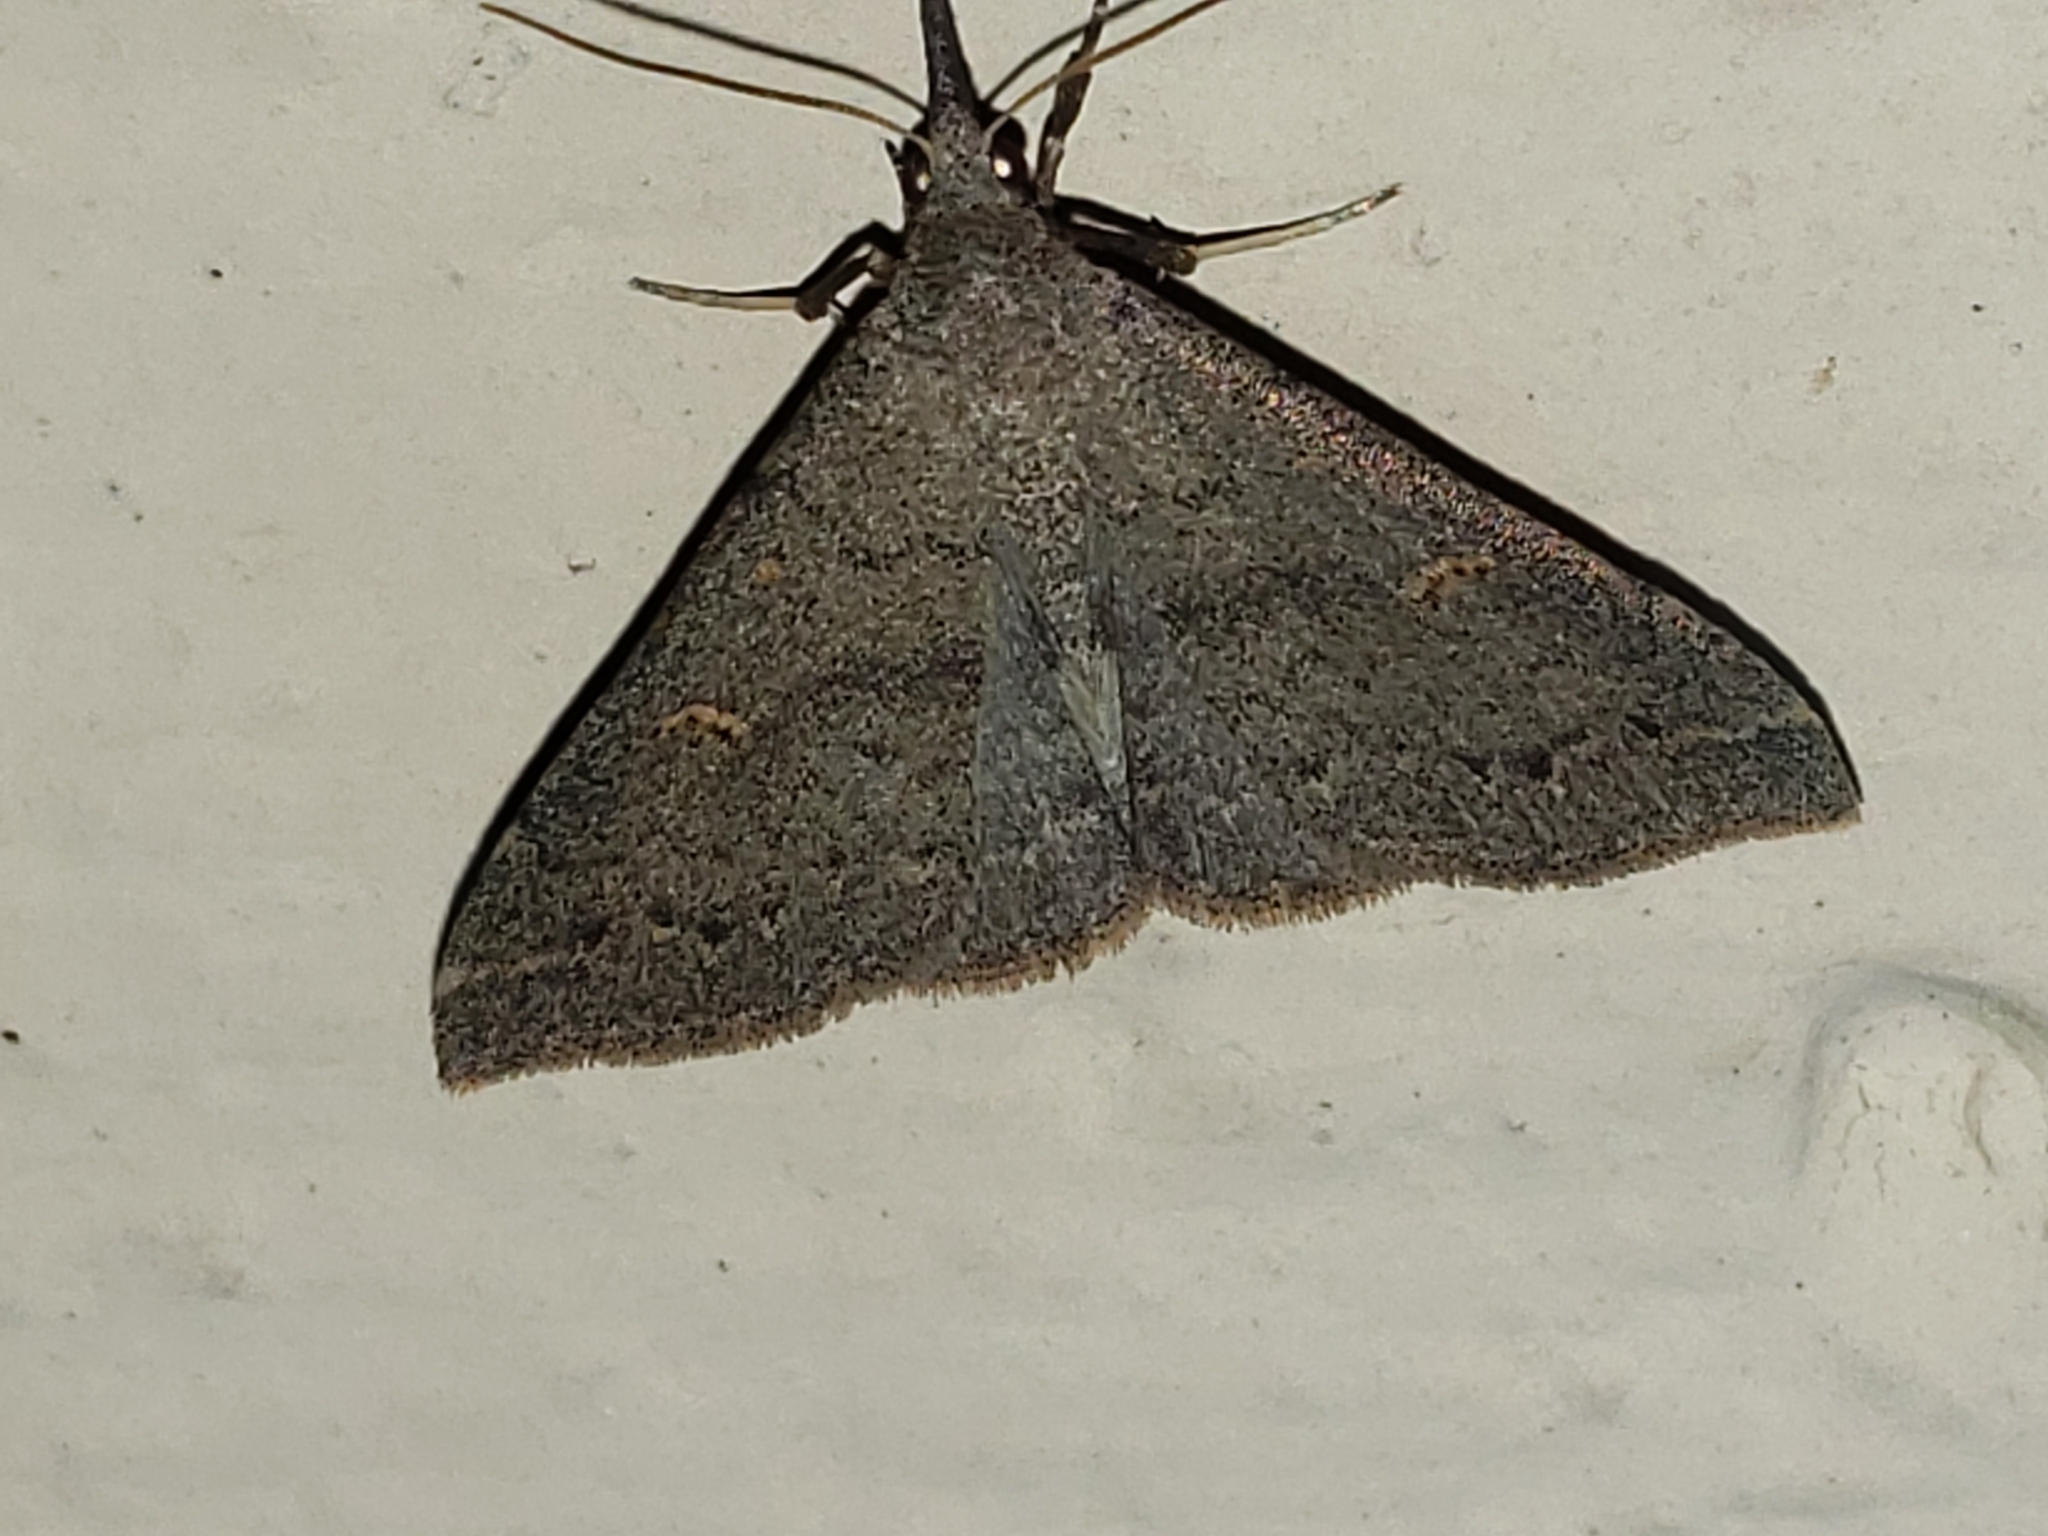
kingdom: Animalia
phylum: Arthropoda
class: Insecta
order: Lepidoptera
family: Erebidae
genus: Renia
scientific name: Renia adspergillus
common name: Speckled renia moth
